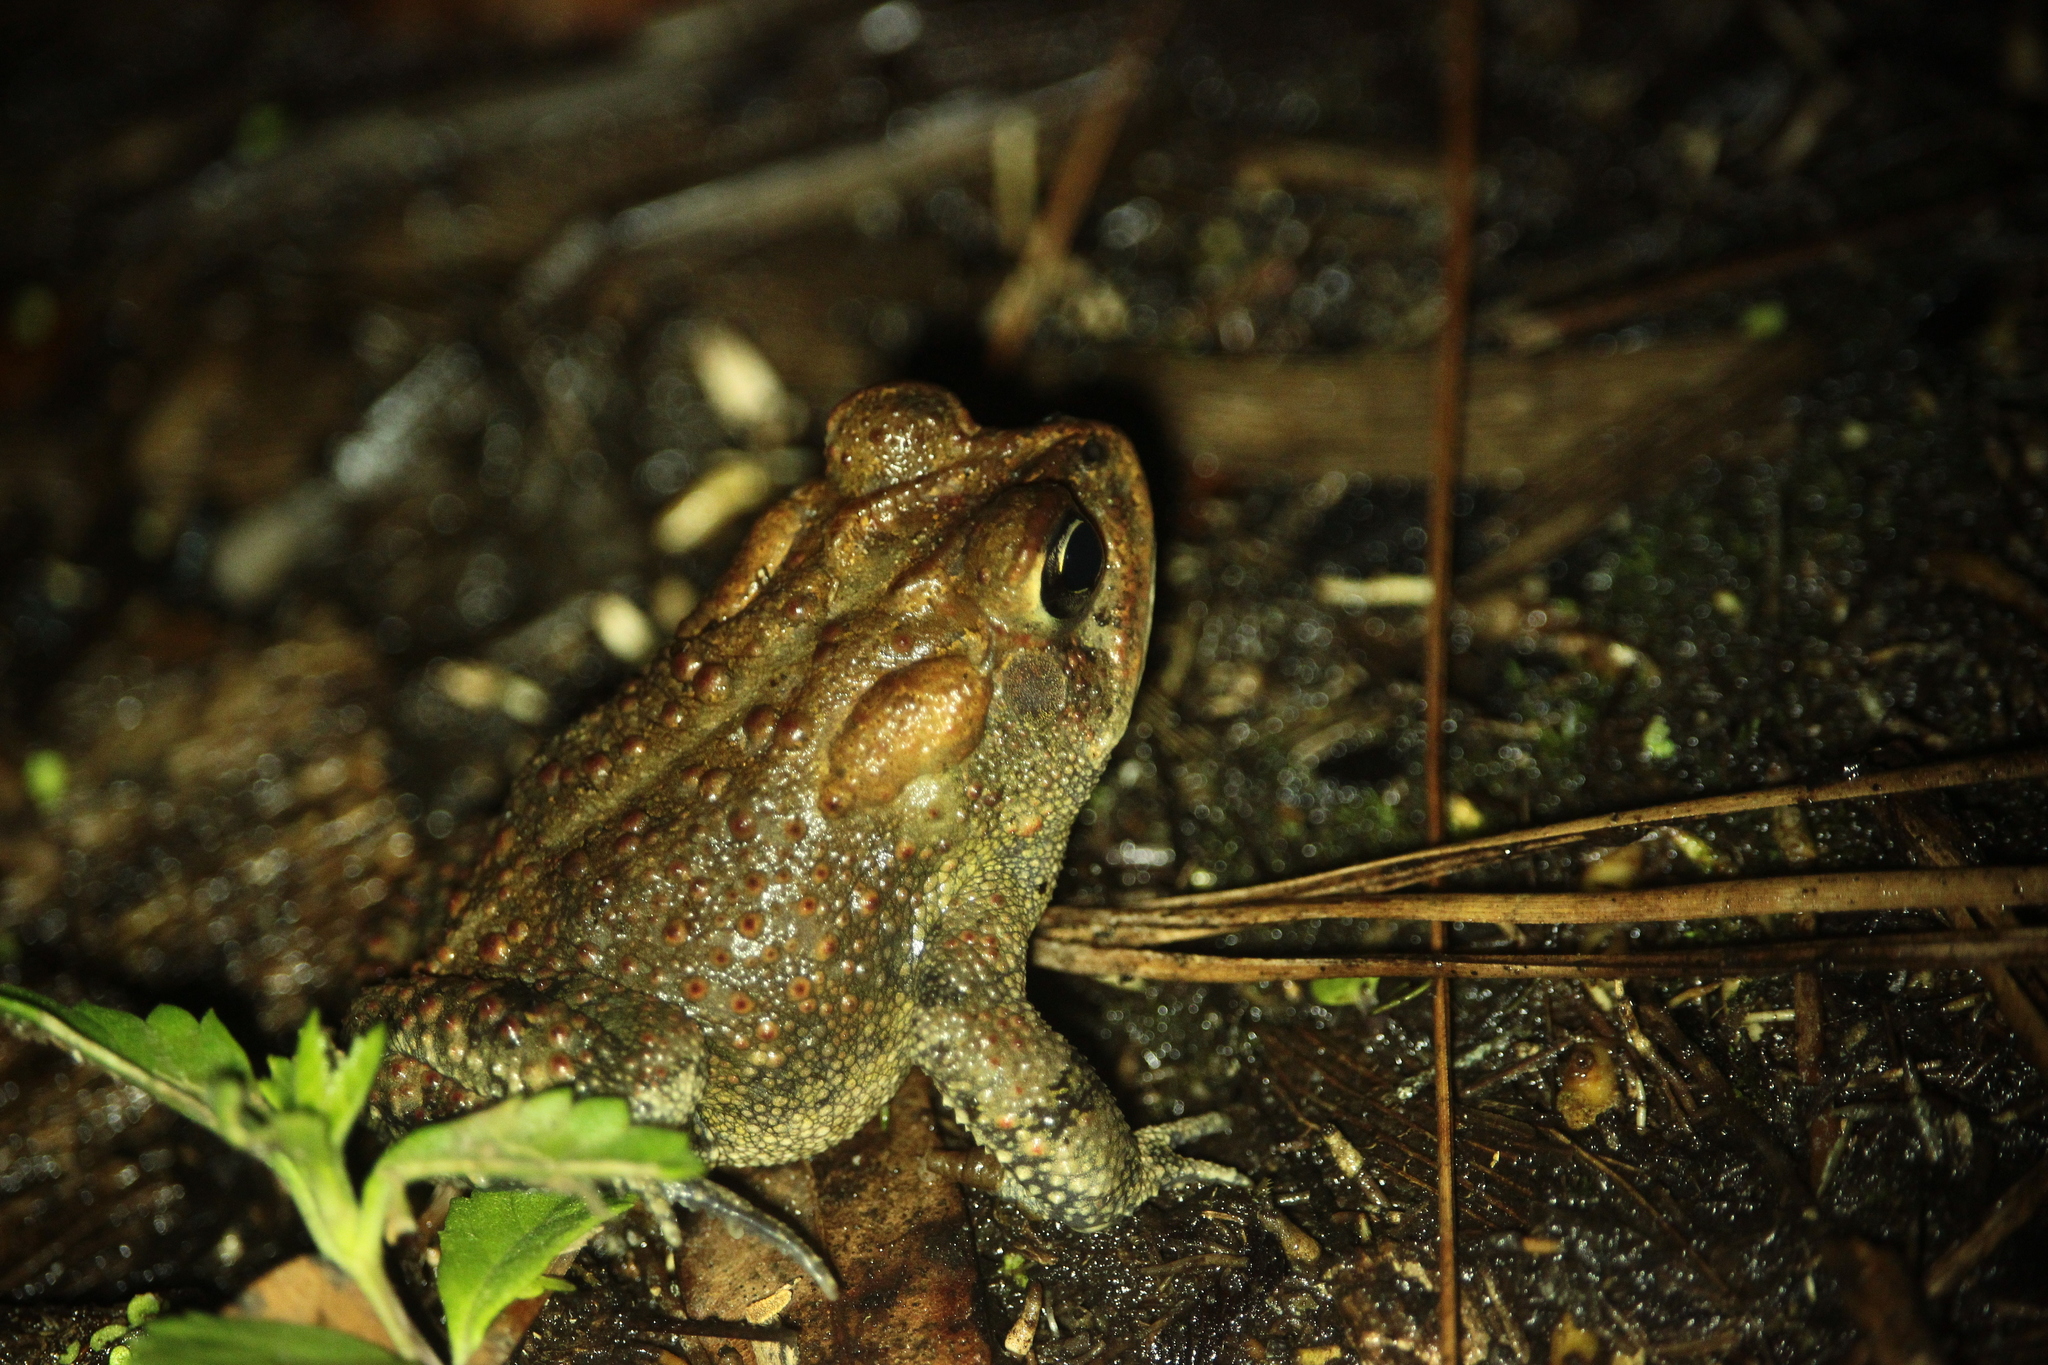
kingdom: Animalia
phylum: Chordata
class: Amphibia
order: Anura
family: Bufonidae
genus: Anaxyrus
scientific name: Anaxyrus terrestris
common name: Southern toad
